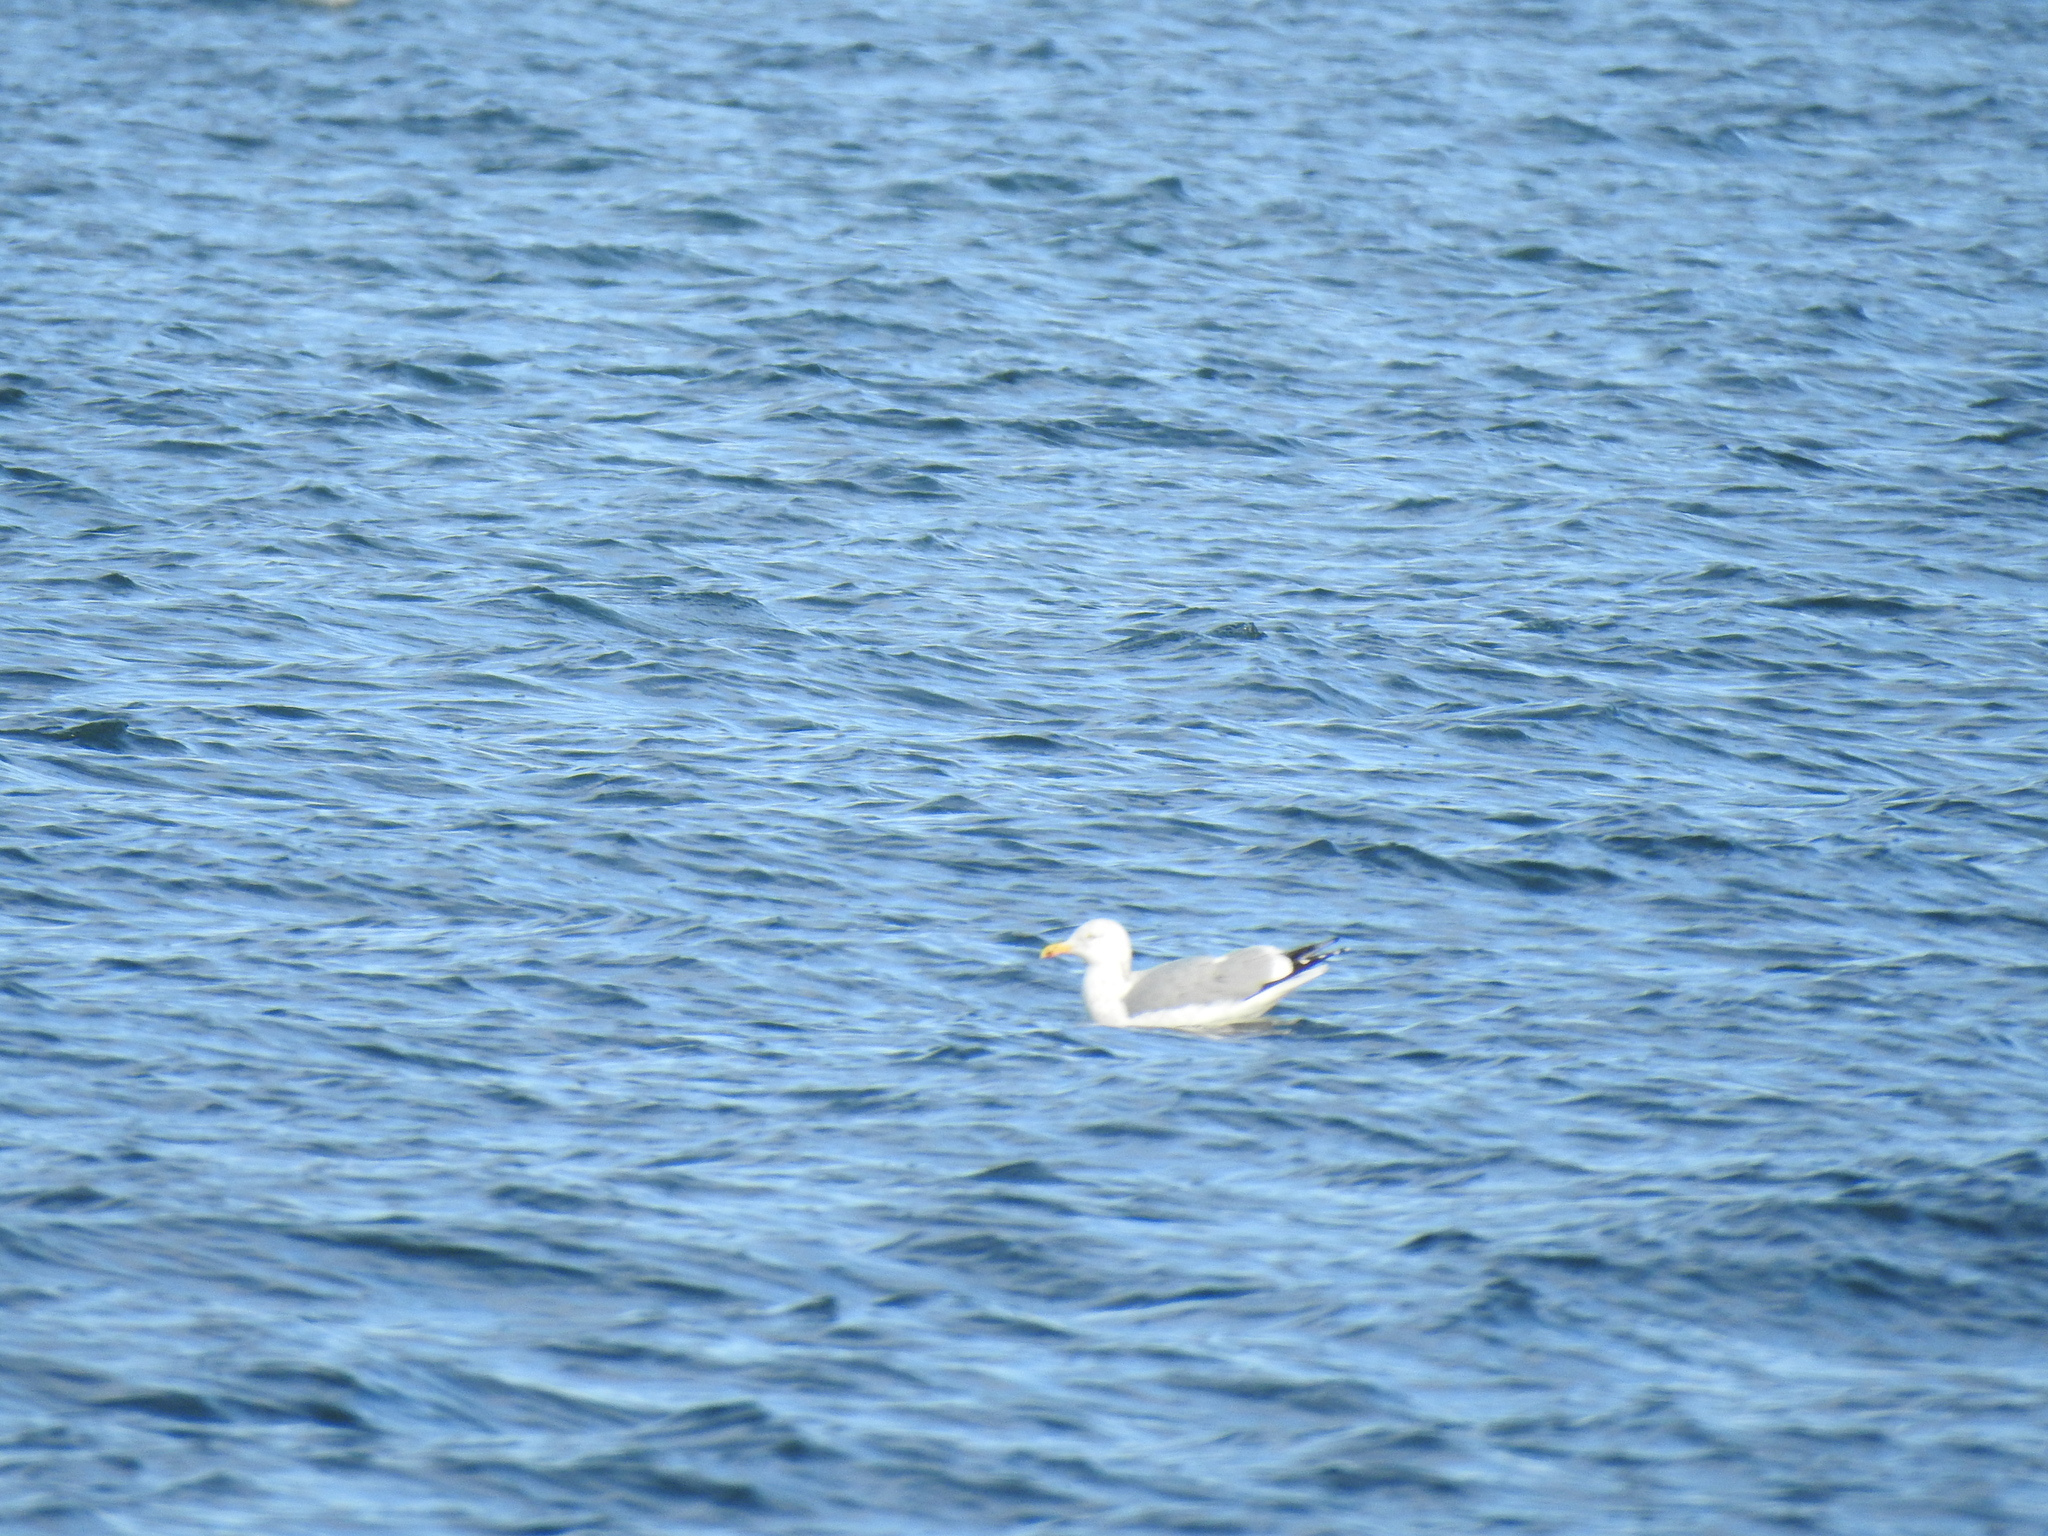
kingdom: Animalia
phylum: Chordata
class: Aves
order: Charadriiformes
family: Laridae
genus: Larus
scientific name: Larus argentatus
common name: Herring gull
